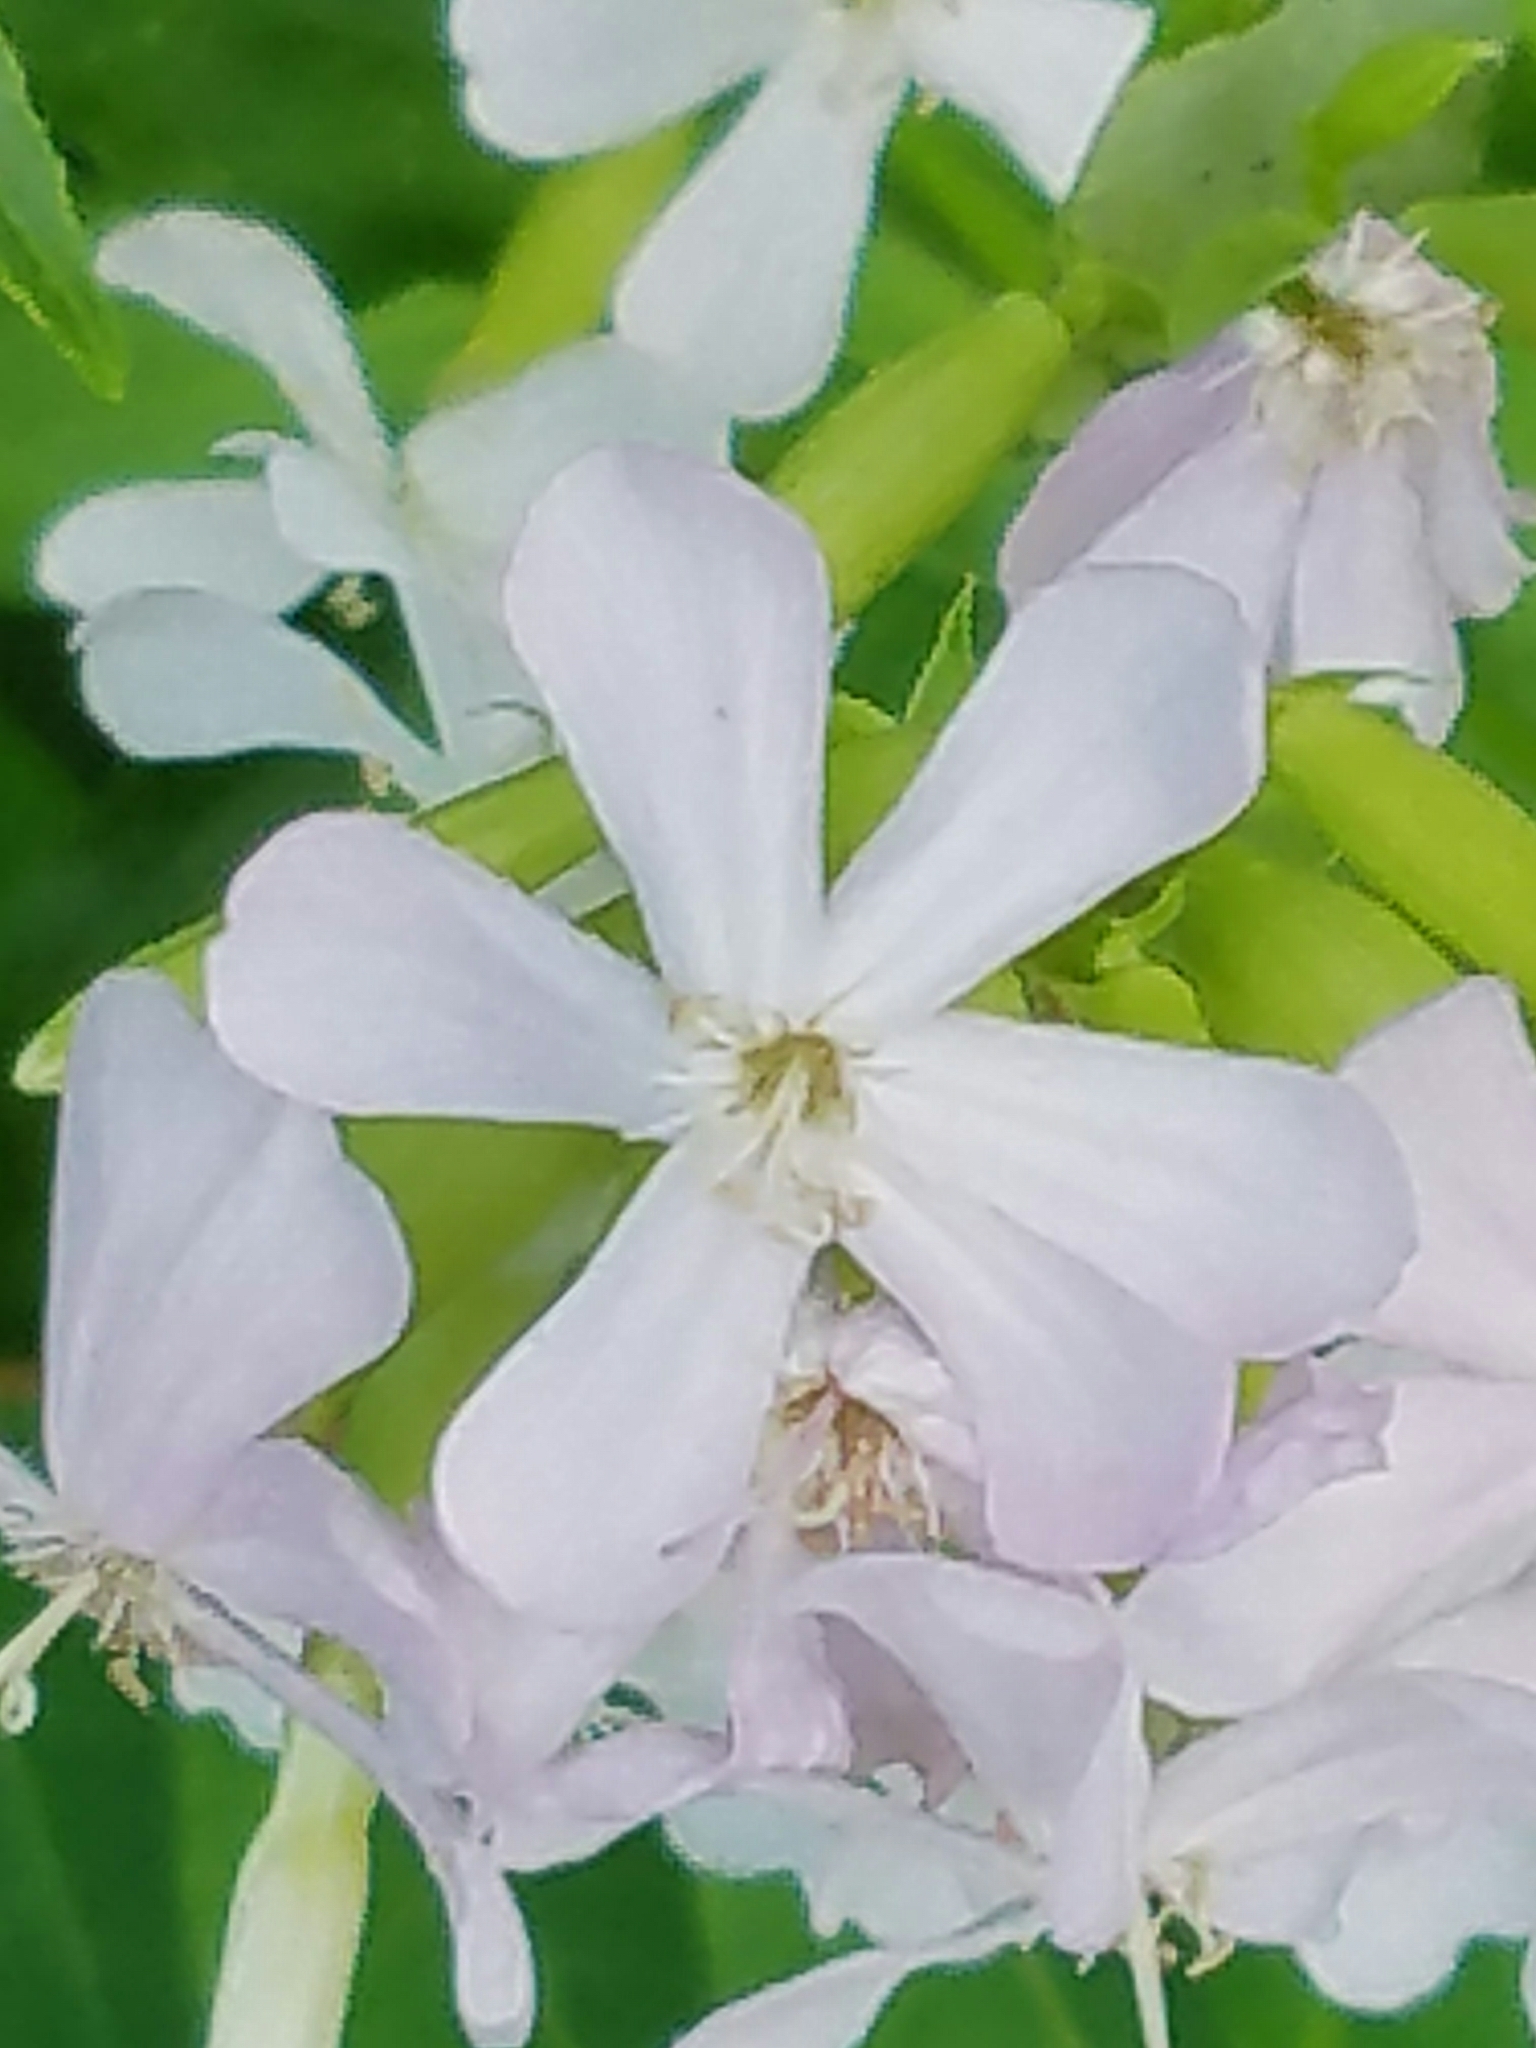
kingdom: Plantae
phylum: Tracheophyta
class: Magnoliopsida
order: Caryophyllales
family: Caryophyllaceae
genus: Saponaria
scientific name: Saponaria officinalis
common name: Soapwort
